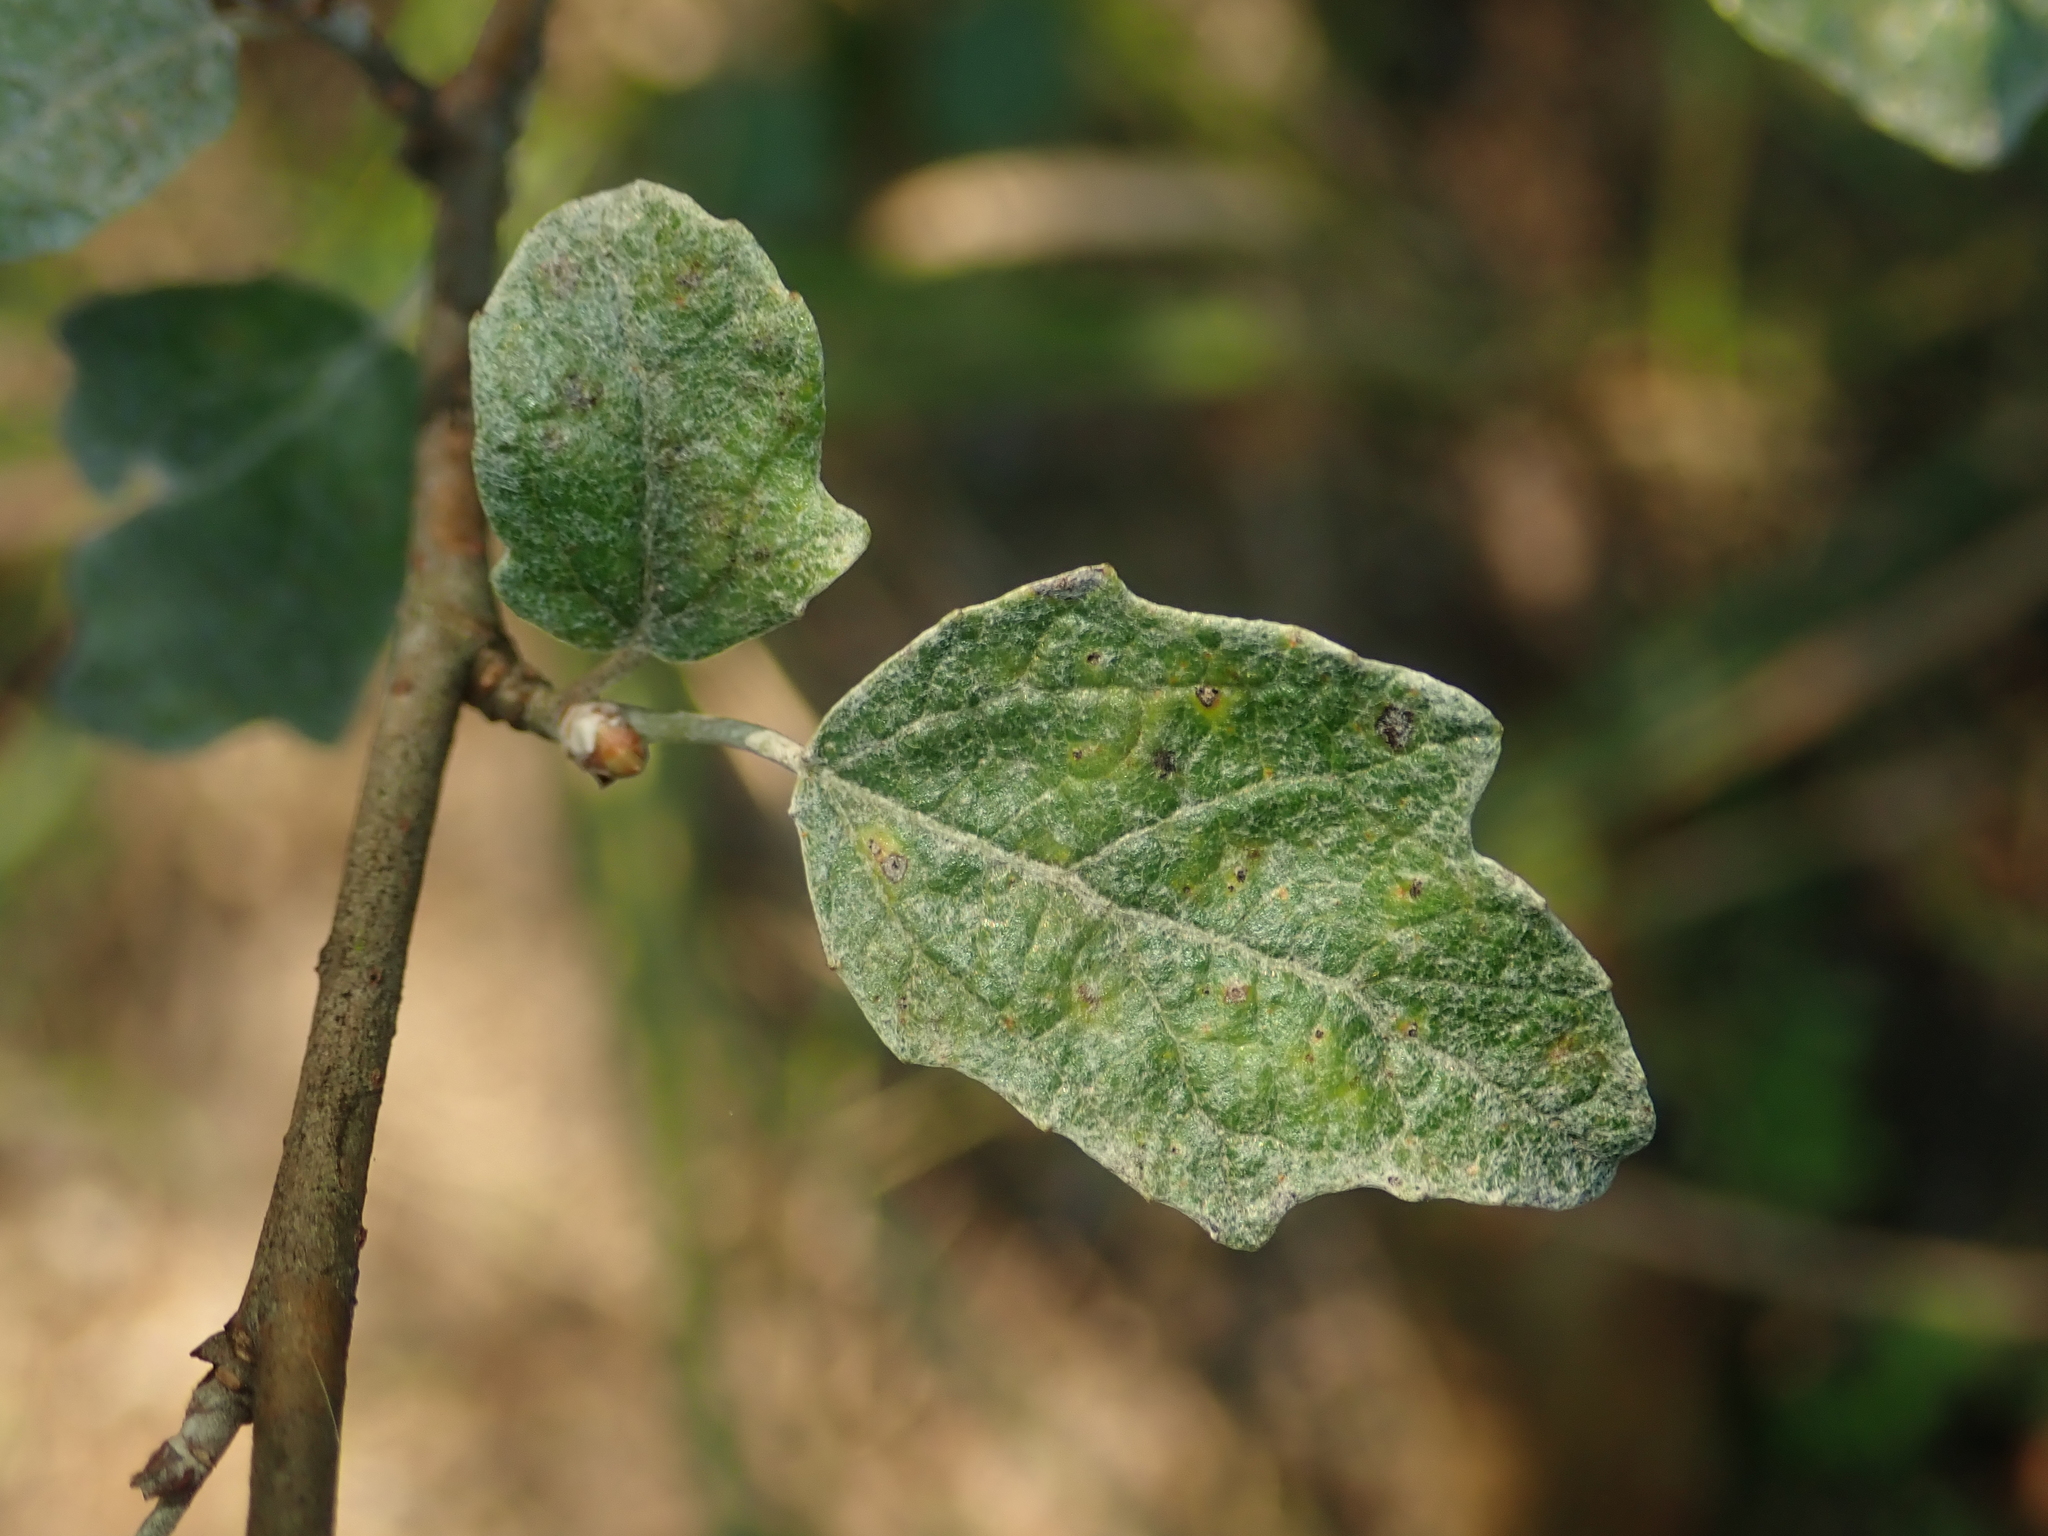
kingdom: Plantae
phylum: Tracheophyta
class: Magnoliopsida
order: Malpighiales
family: Salicaceae
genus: Populus
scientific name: Populus alba
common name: White poplar
